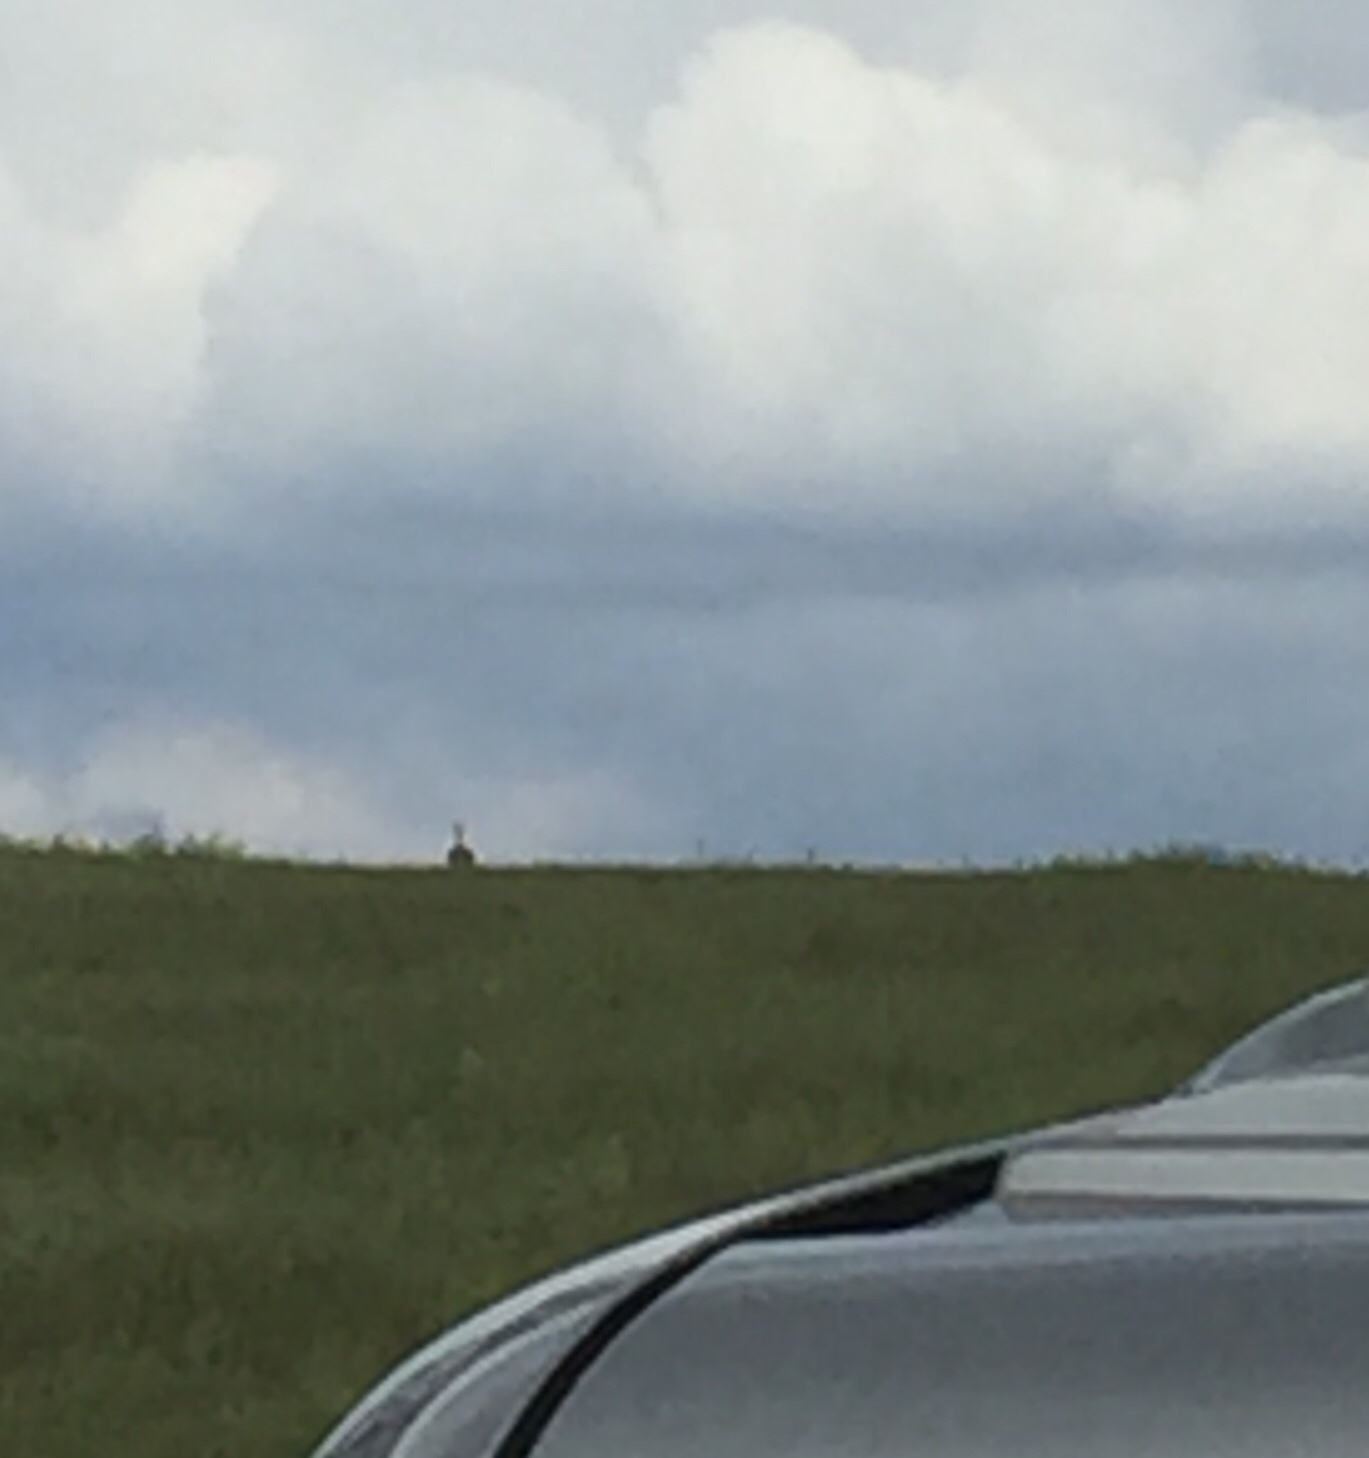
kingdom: Animalia
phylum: Chordata
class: Aves
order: Otidiformes
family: Otididae
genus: Otis
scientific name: Otis tarda
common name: Great bustard
